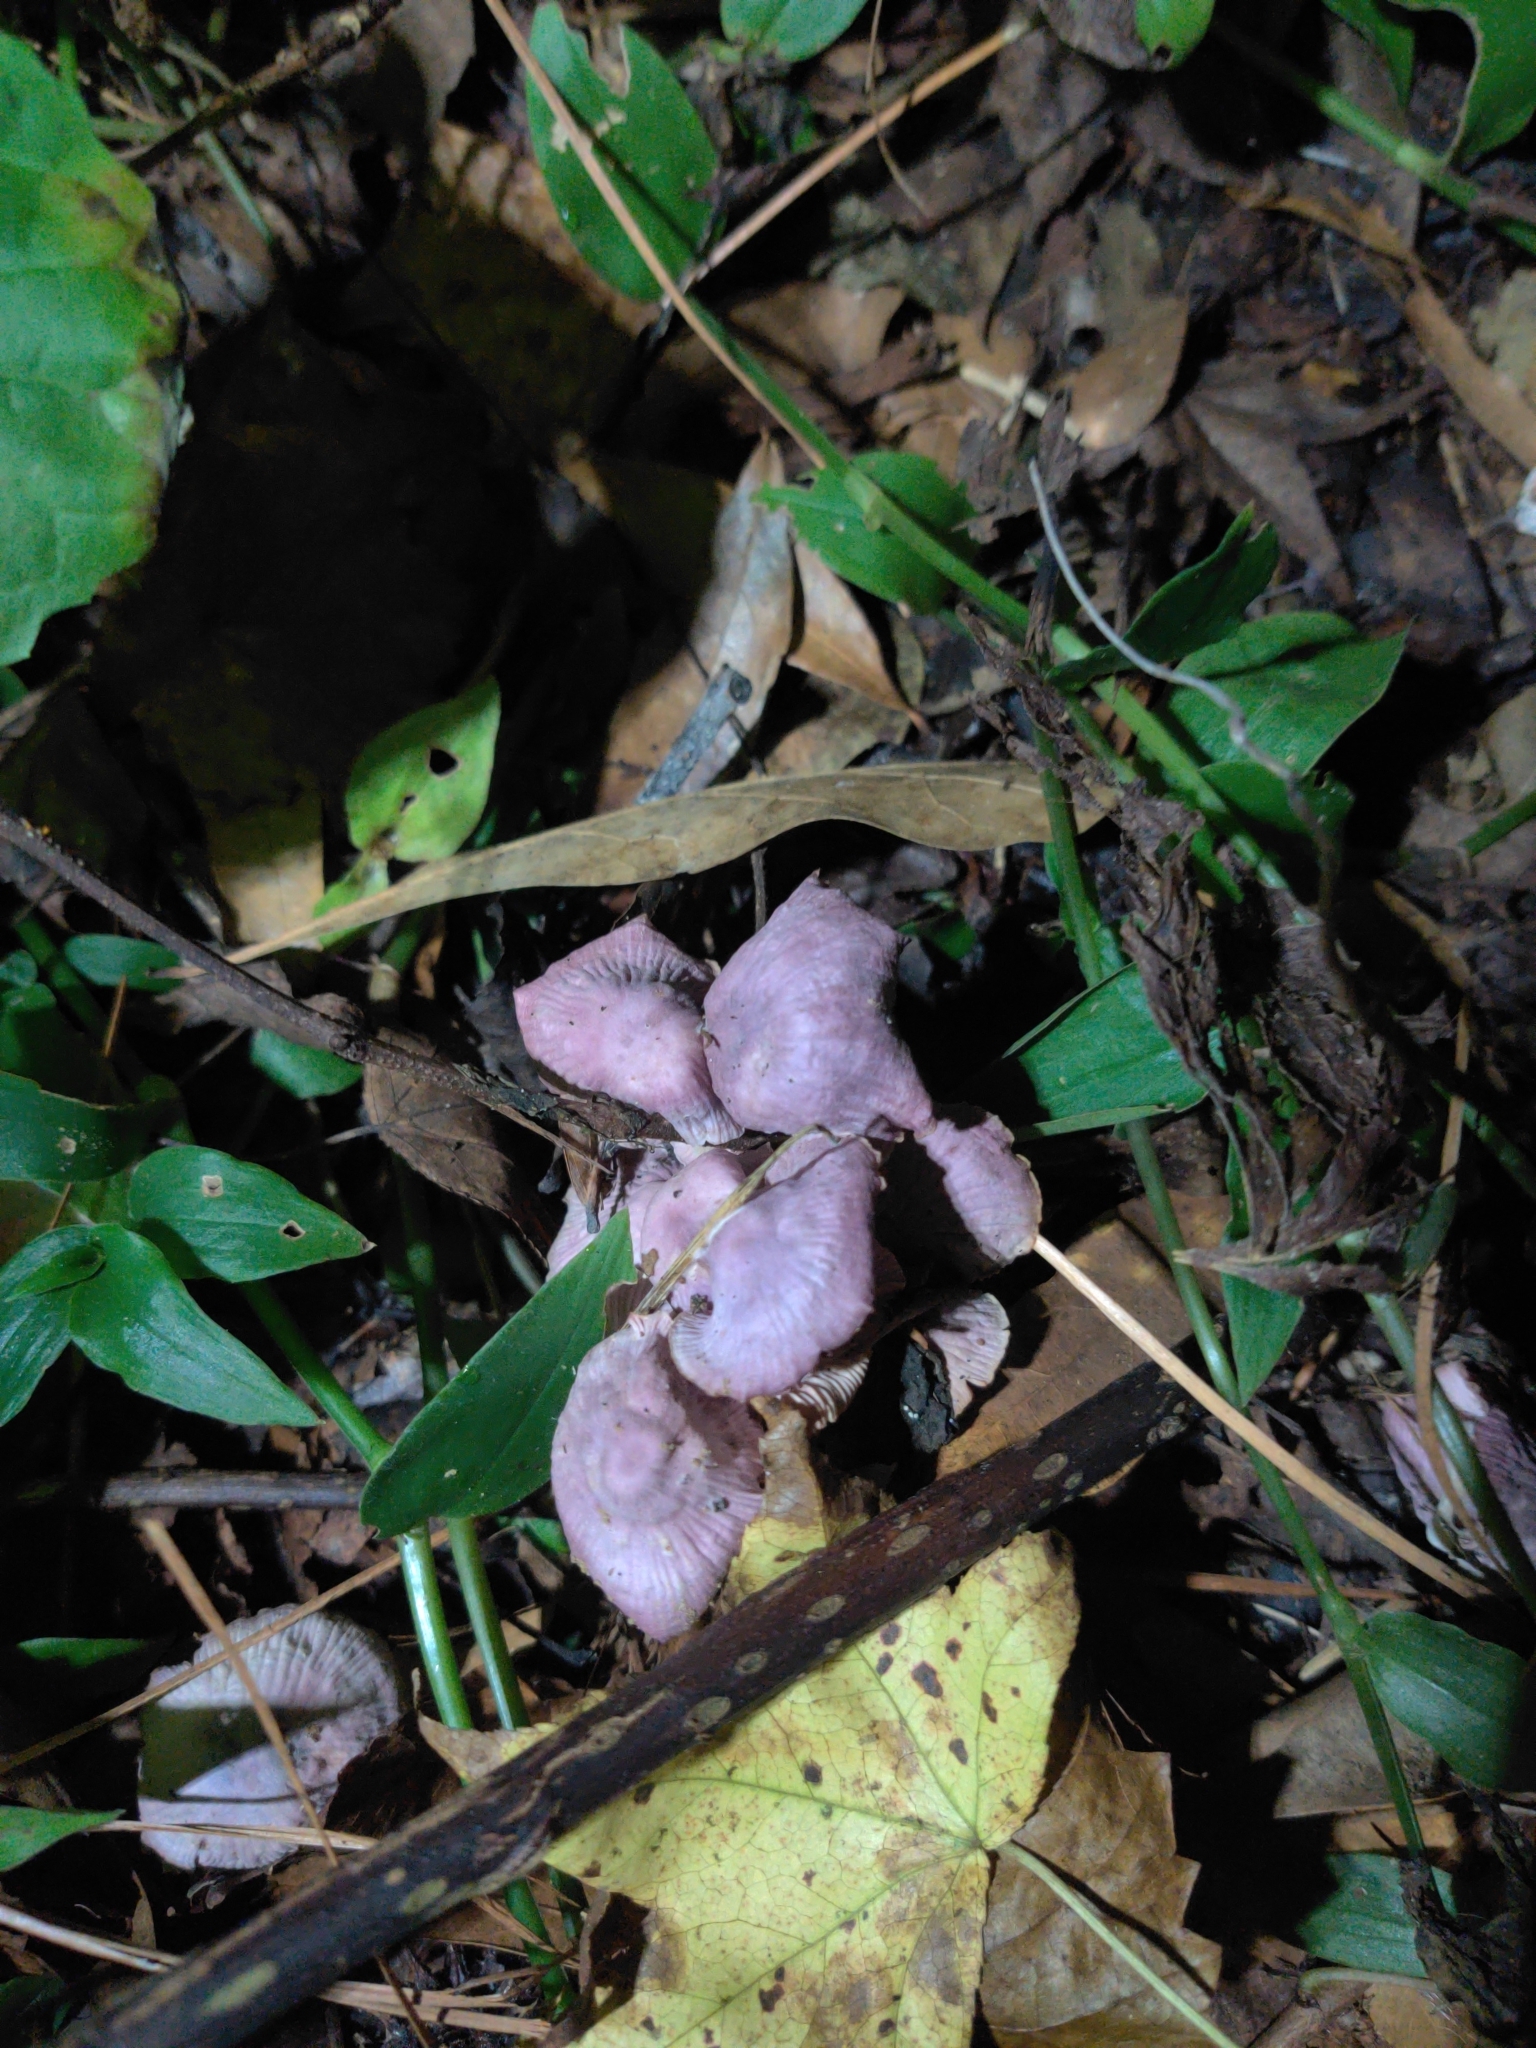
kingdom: Fungi
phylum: Basidiomycota
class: Agaricomycetes
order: Agaricales
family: Omphalotaceae
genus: Gymnopus
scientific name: Gymnopus iocephalus
